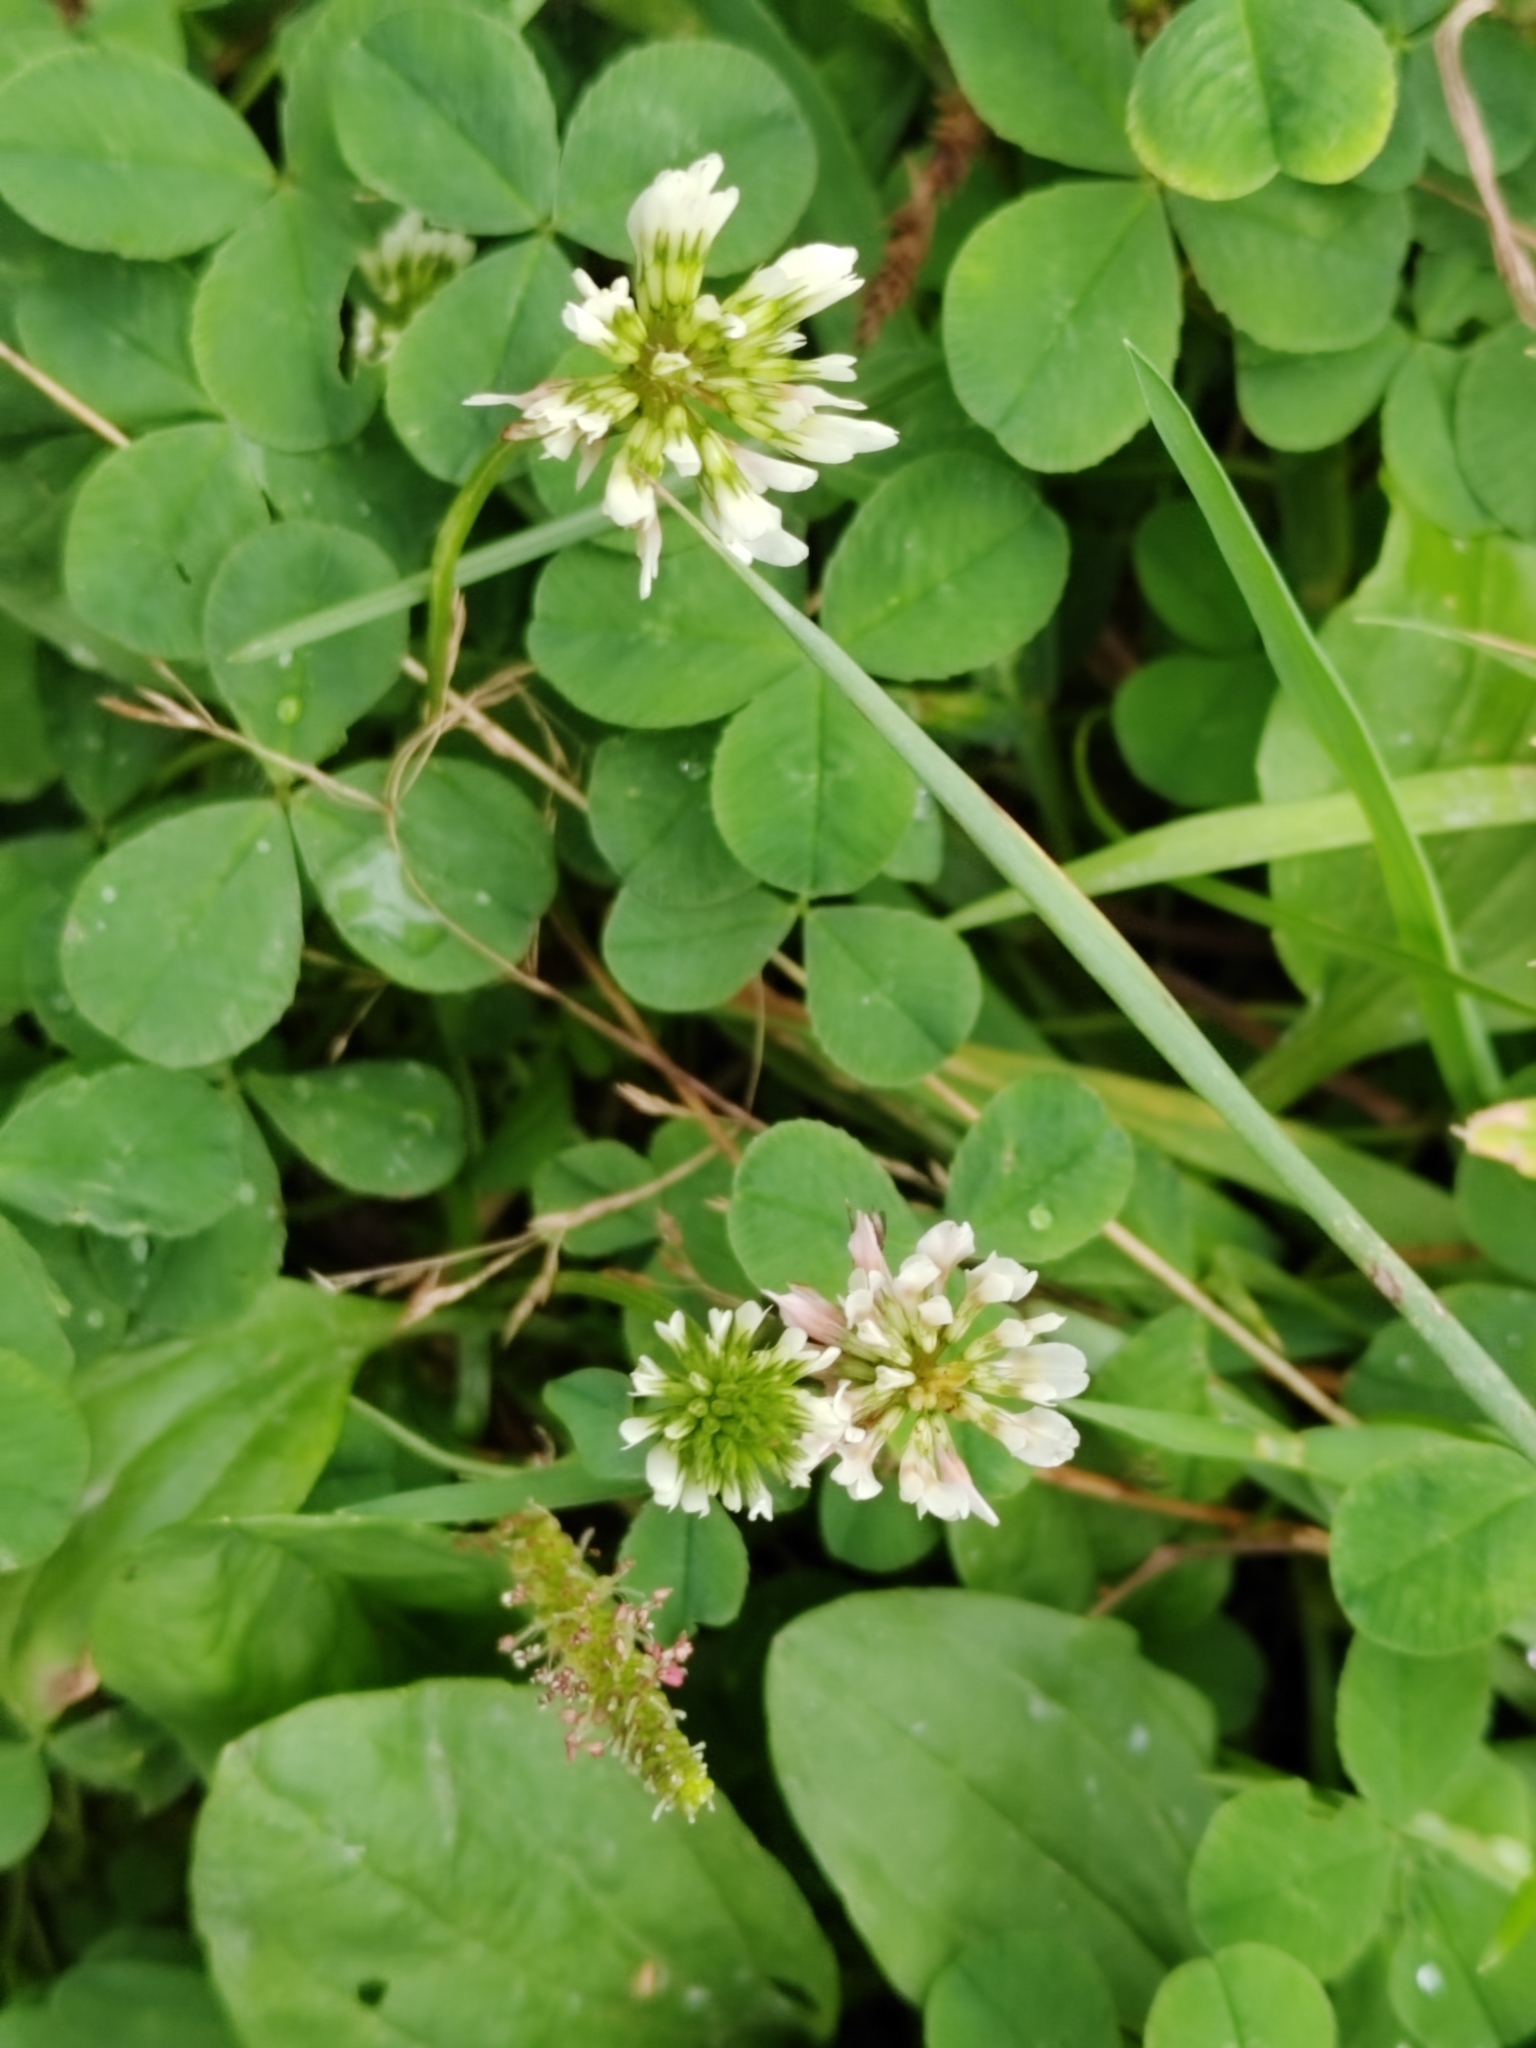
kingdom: Plantae
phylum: Tracheophyta
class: Magnoliopsida
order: Fabales
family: Fabaceae
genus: Trifolium
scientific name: Trifolium repens
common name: White clover
